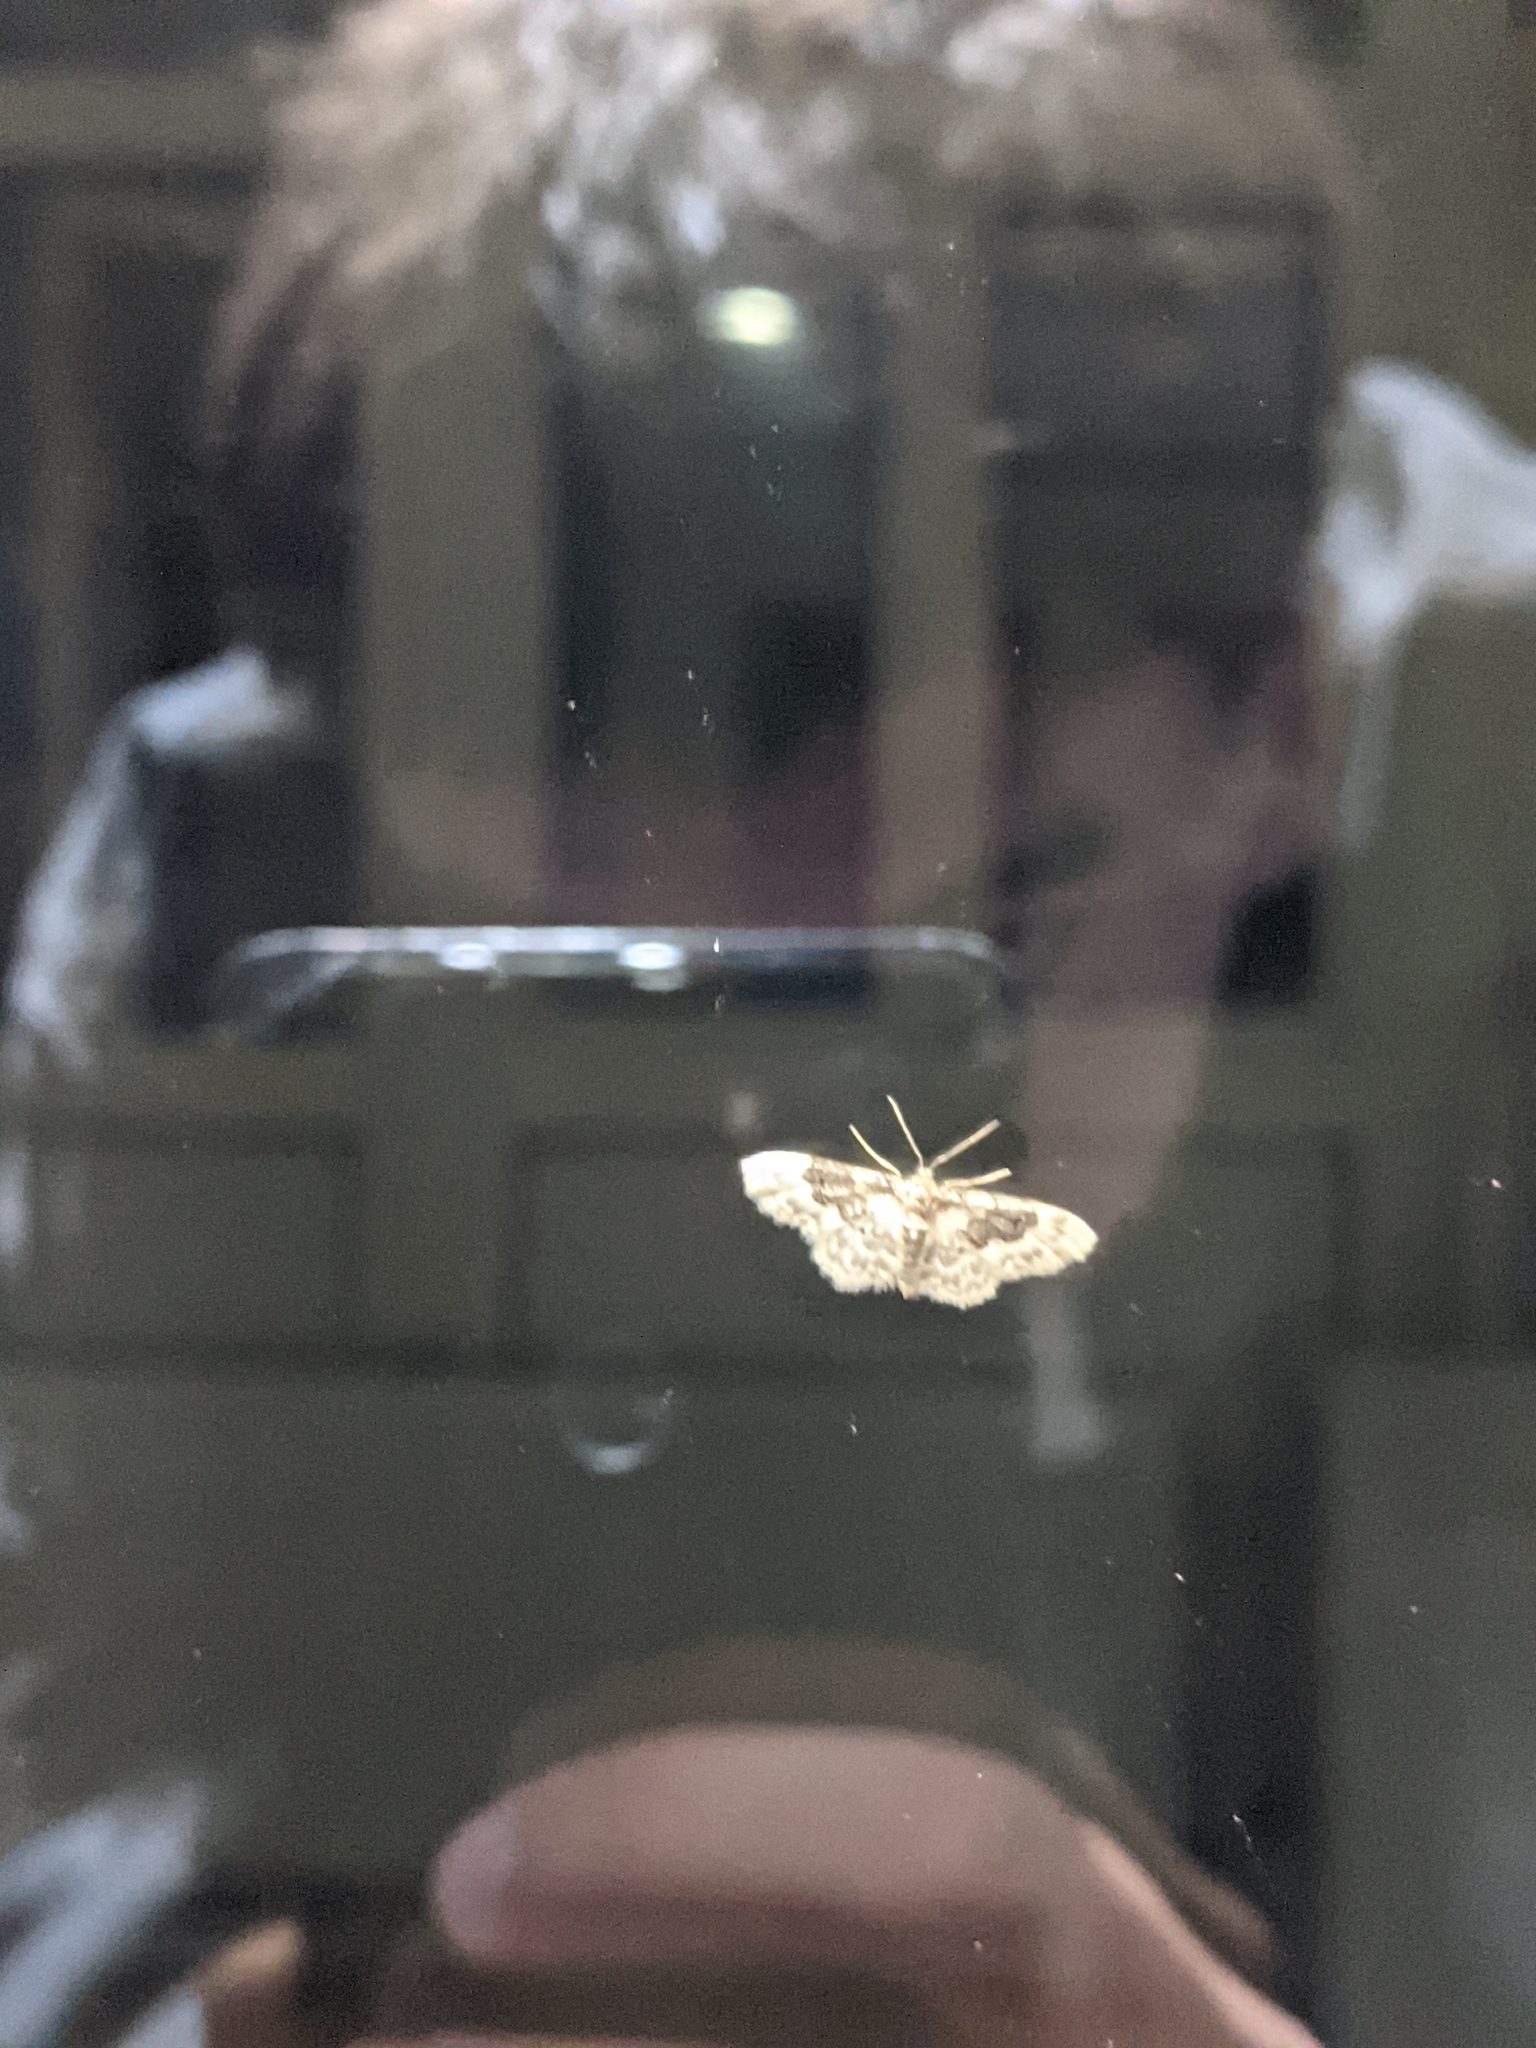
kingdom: Animalia
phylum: Arthropoda
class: Insecta
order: Lepidoptera
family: Geometridae
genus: Idaea
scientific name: Idaea rusticata
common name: Least carpet
